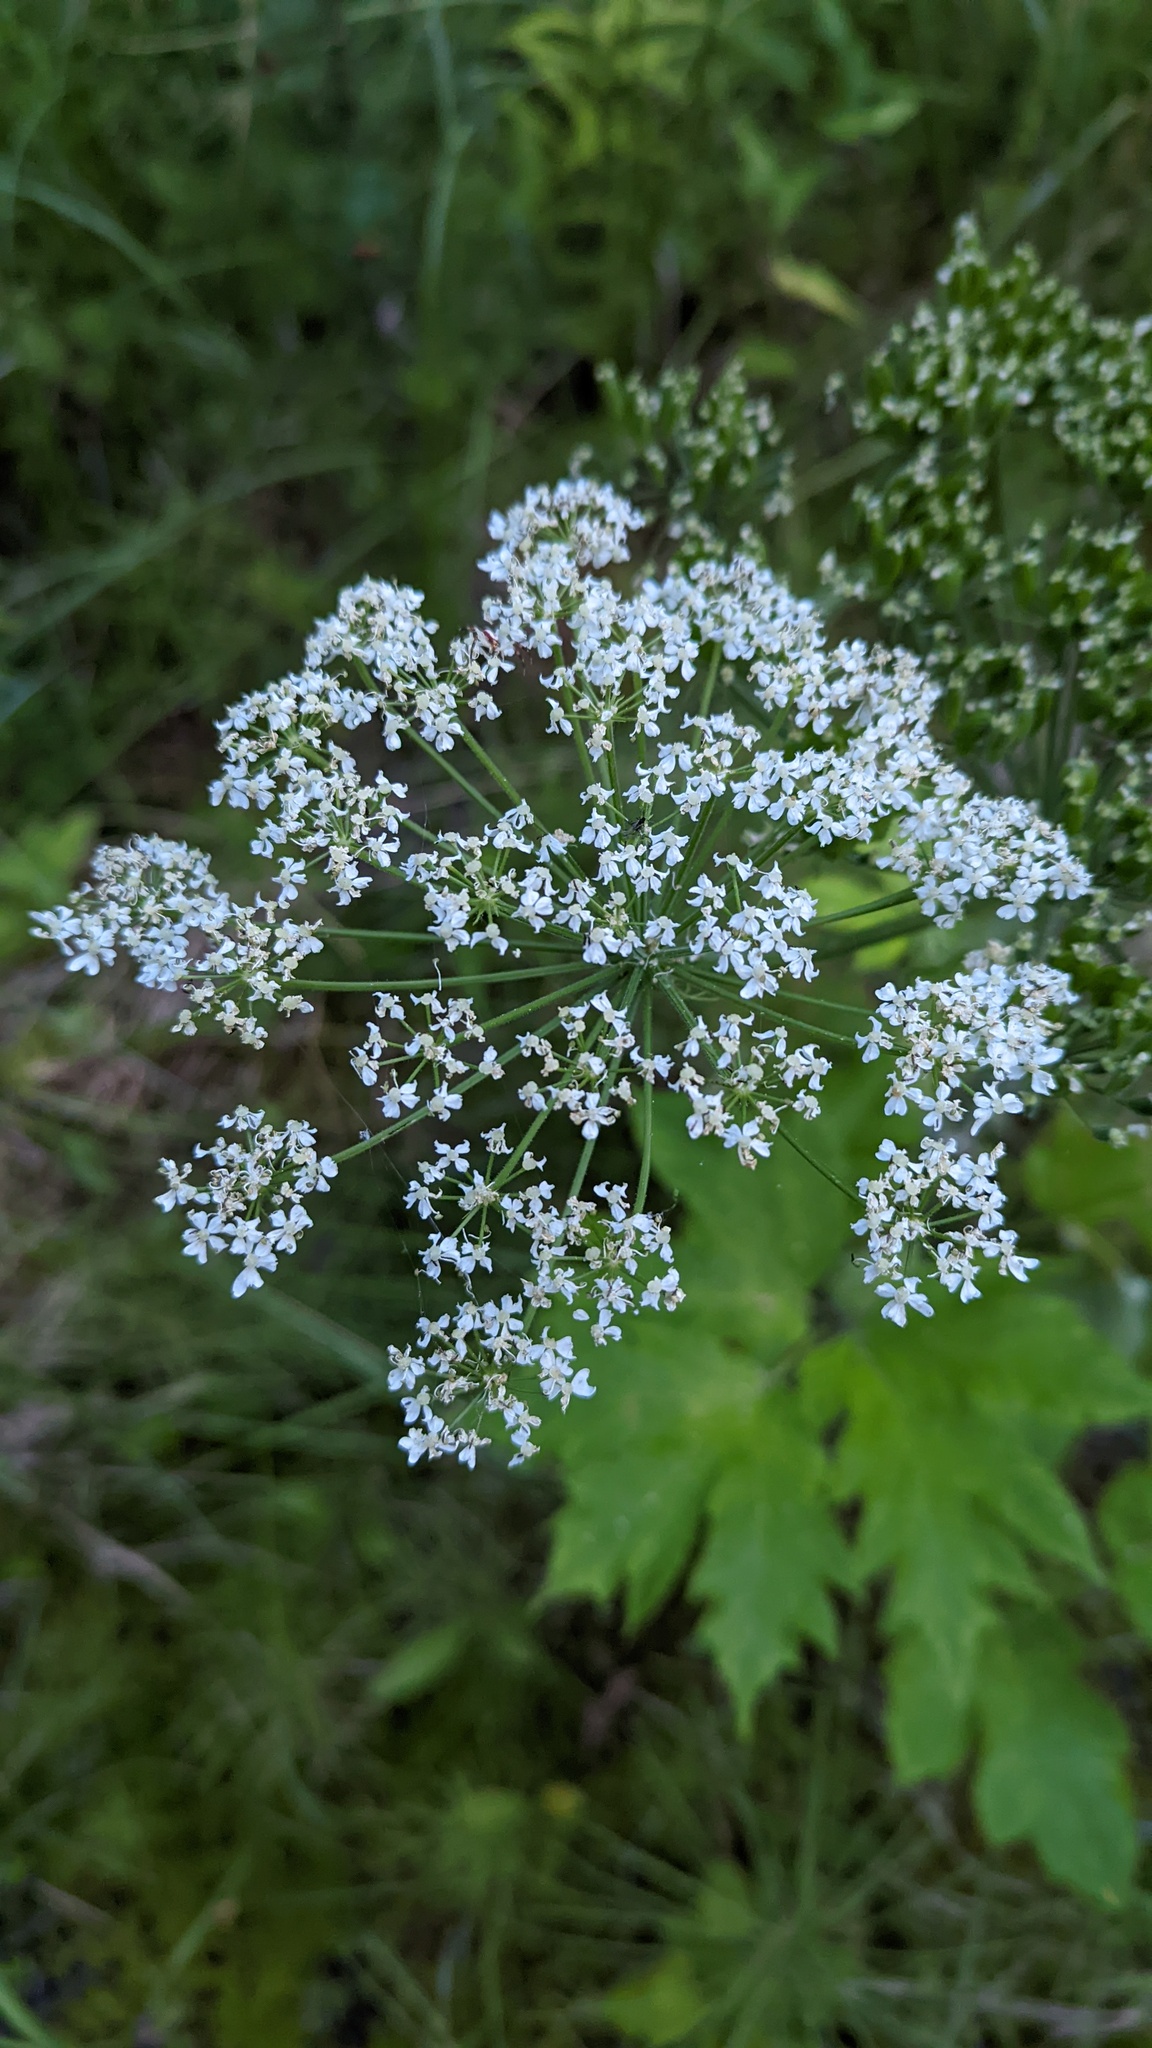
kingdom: Plantae
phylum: Tracheophyta
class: Magnoliopsida
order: Apiales
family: Apiaceae
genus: Heracleum
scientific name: Heracleum maximum
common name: American cow parsnip
